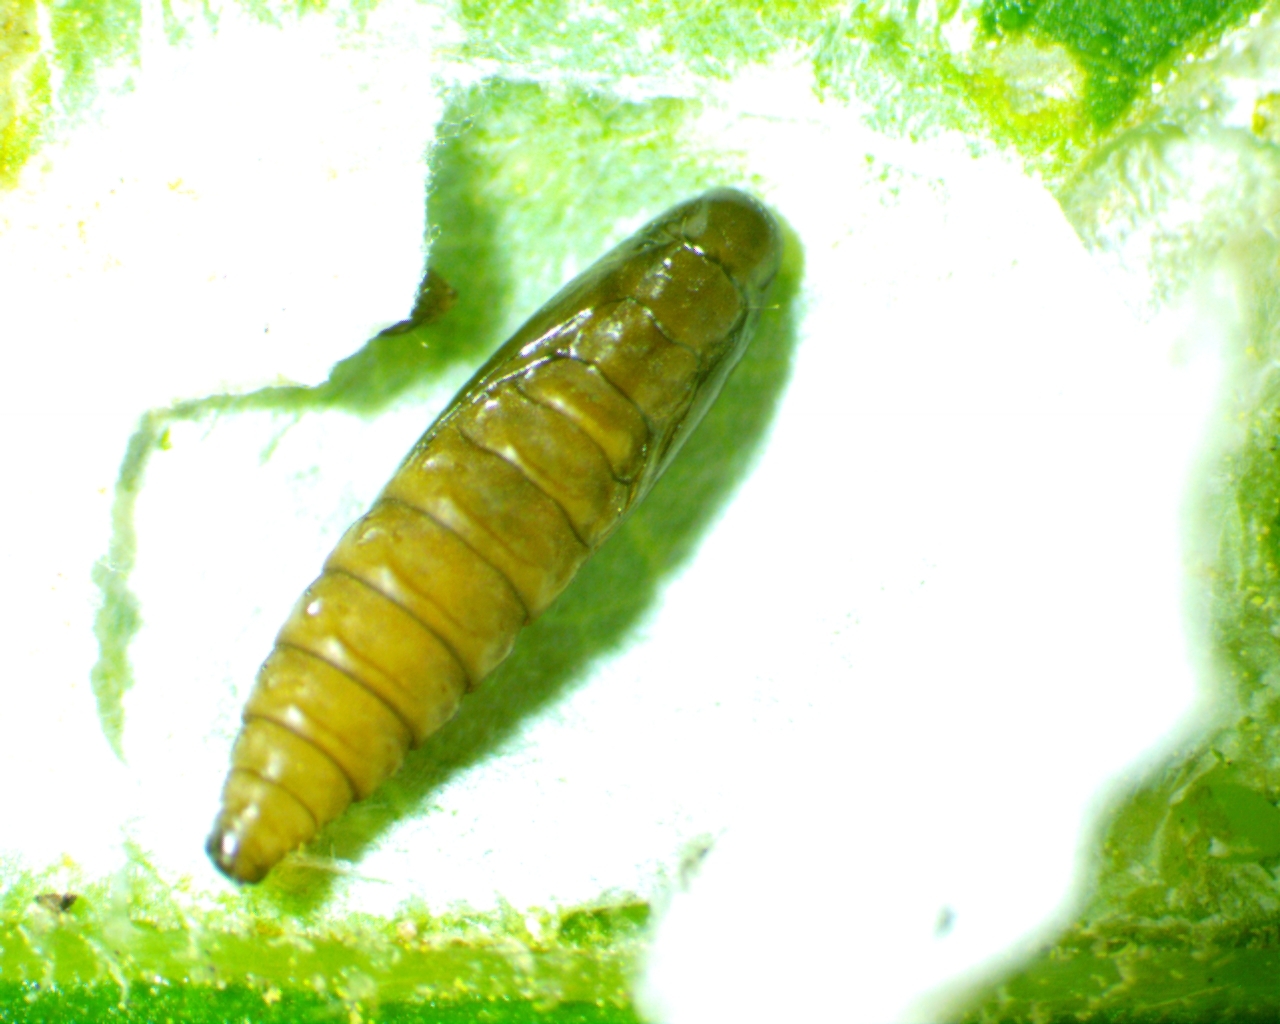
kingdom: Animalia
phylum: Arthropoda
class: Insecta
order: Lepidoptera
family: Tischeriidae
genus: Astrotischeria
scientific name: Astrotischeria heliopsisella
